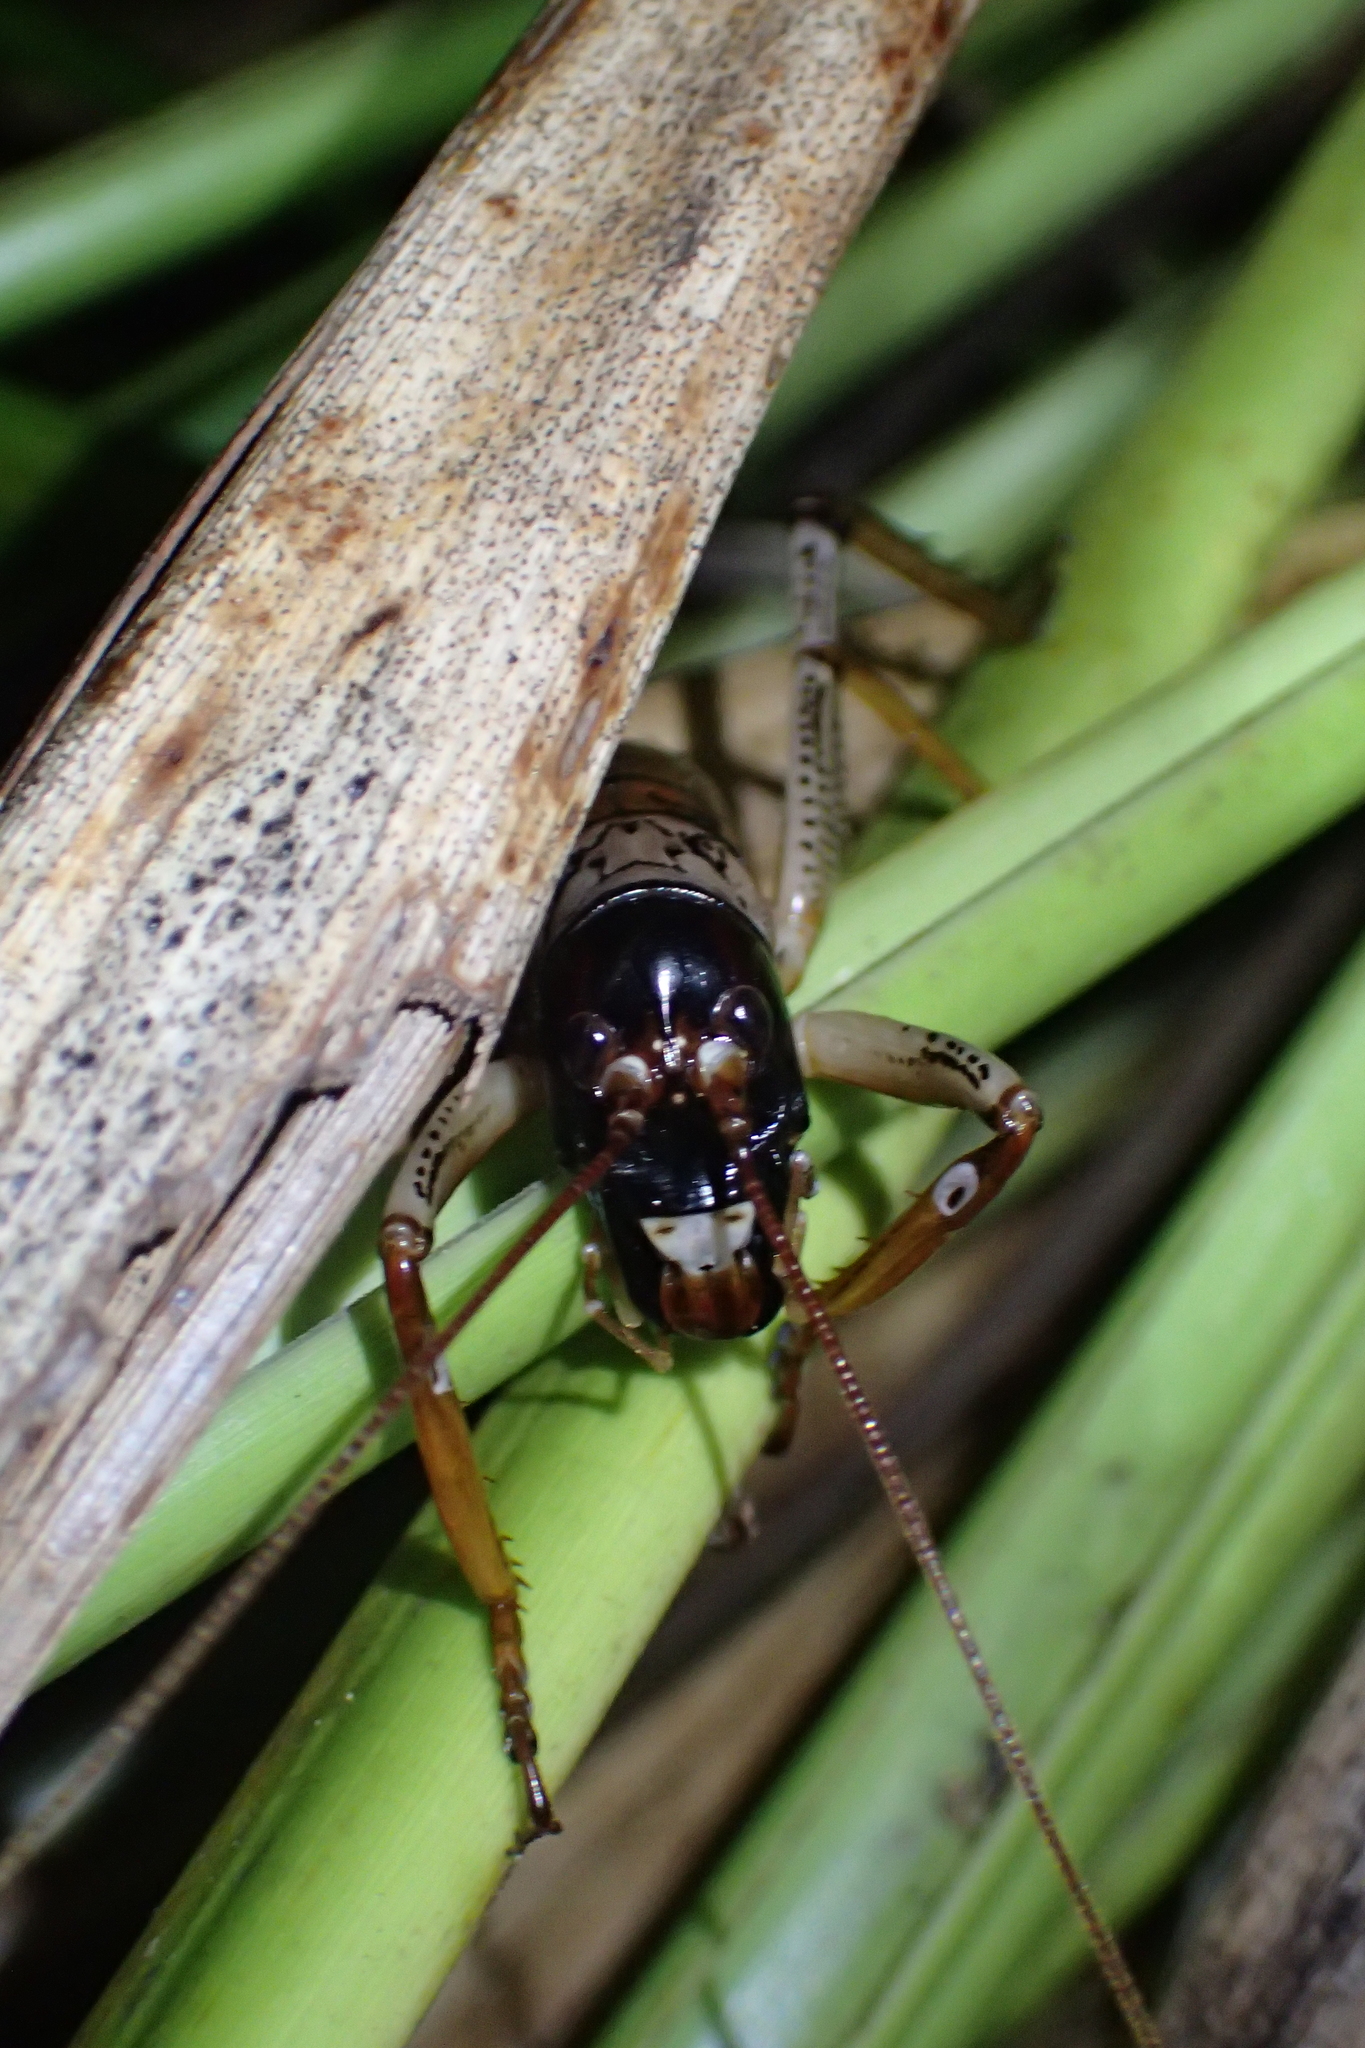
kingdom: Animalia
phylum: Arthropoda
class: Insecta
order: Orthoptera
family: Anostostomatidae
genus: Hemideina
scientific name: Hemideina thoracica
